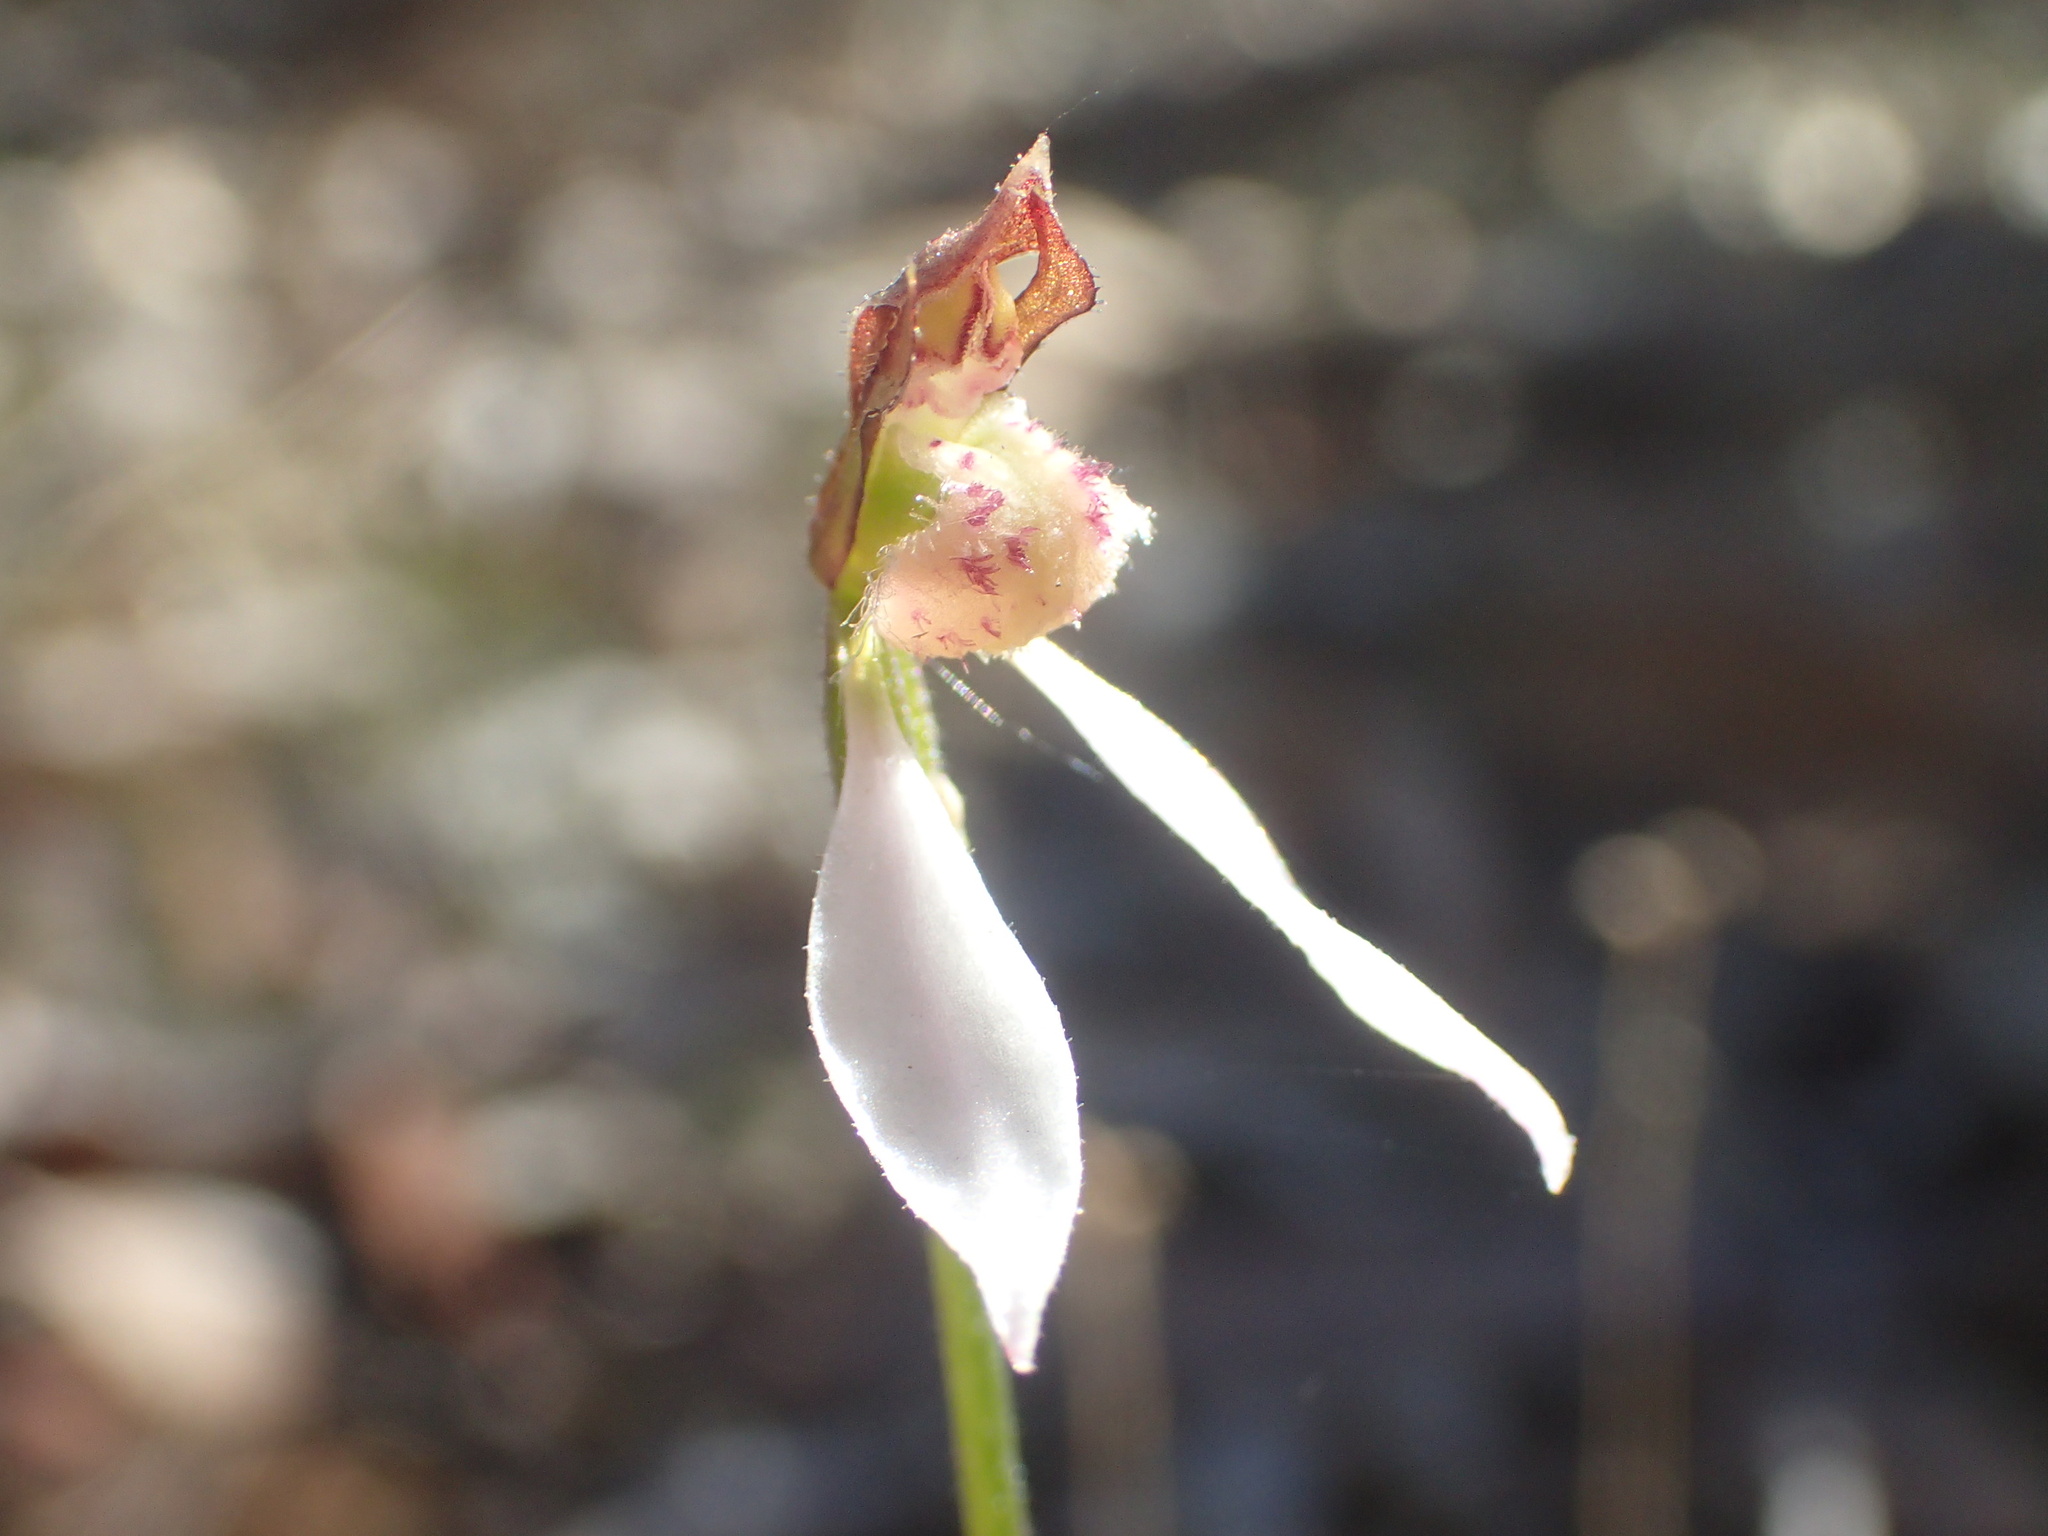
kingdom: Plantae
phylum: Tracheophyta
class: Liliopsida
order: Asparagales
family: Orchidaceae
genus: Eriochilus
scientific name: Eriochilus dilatatus
